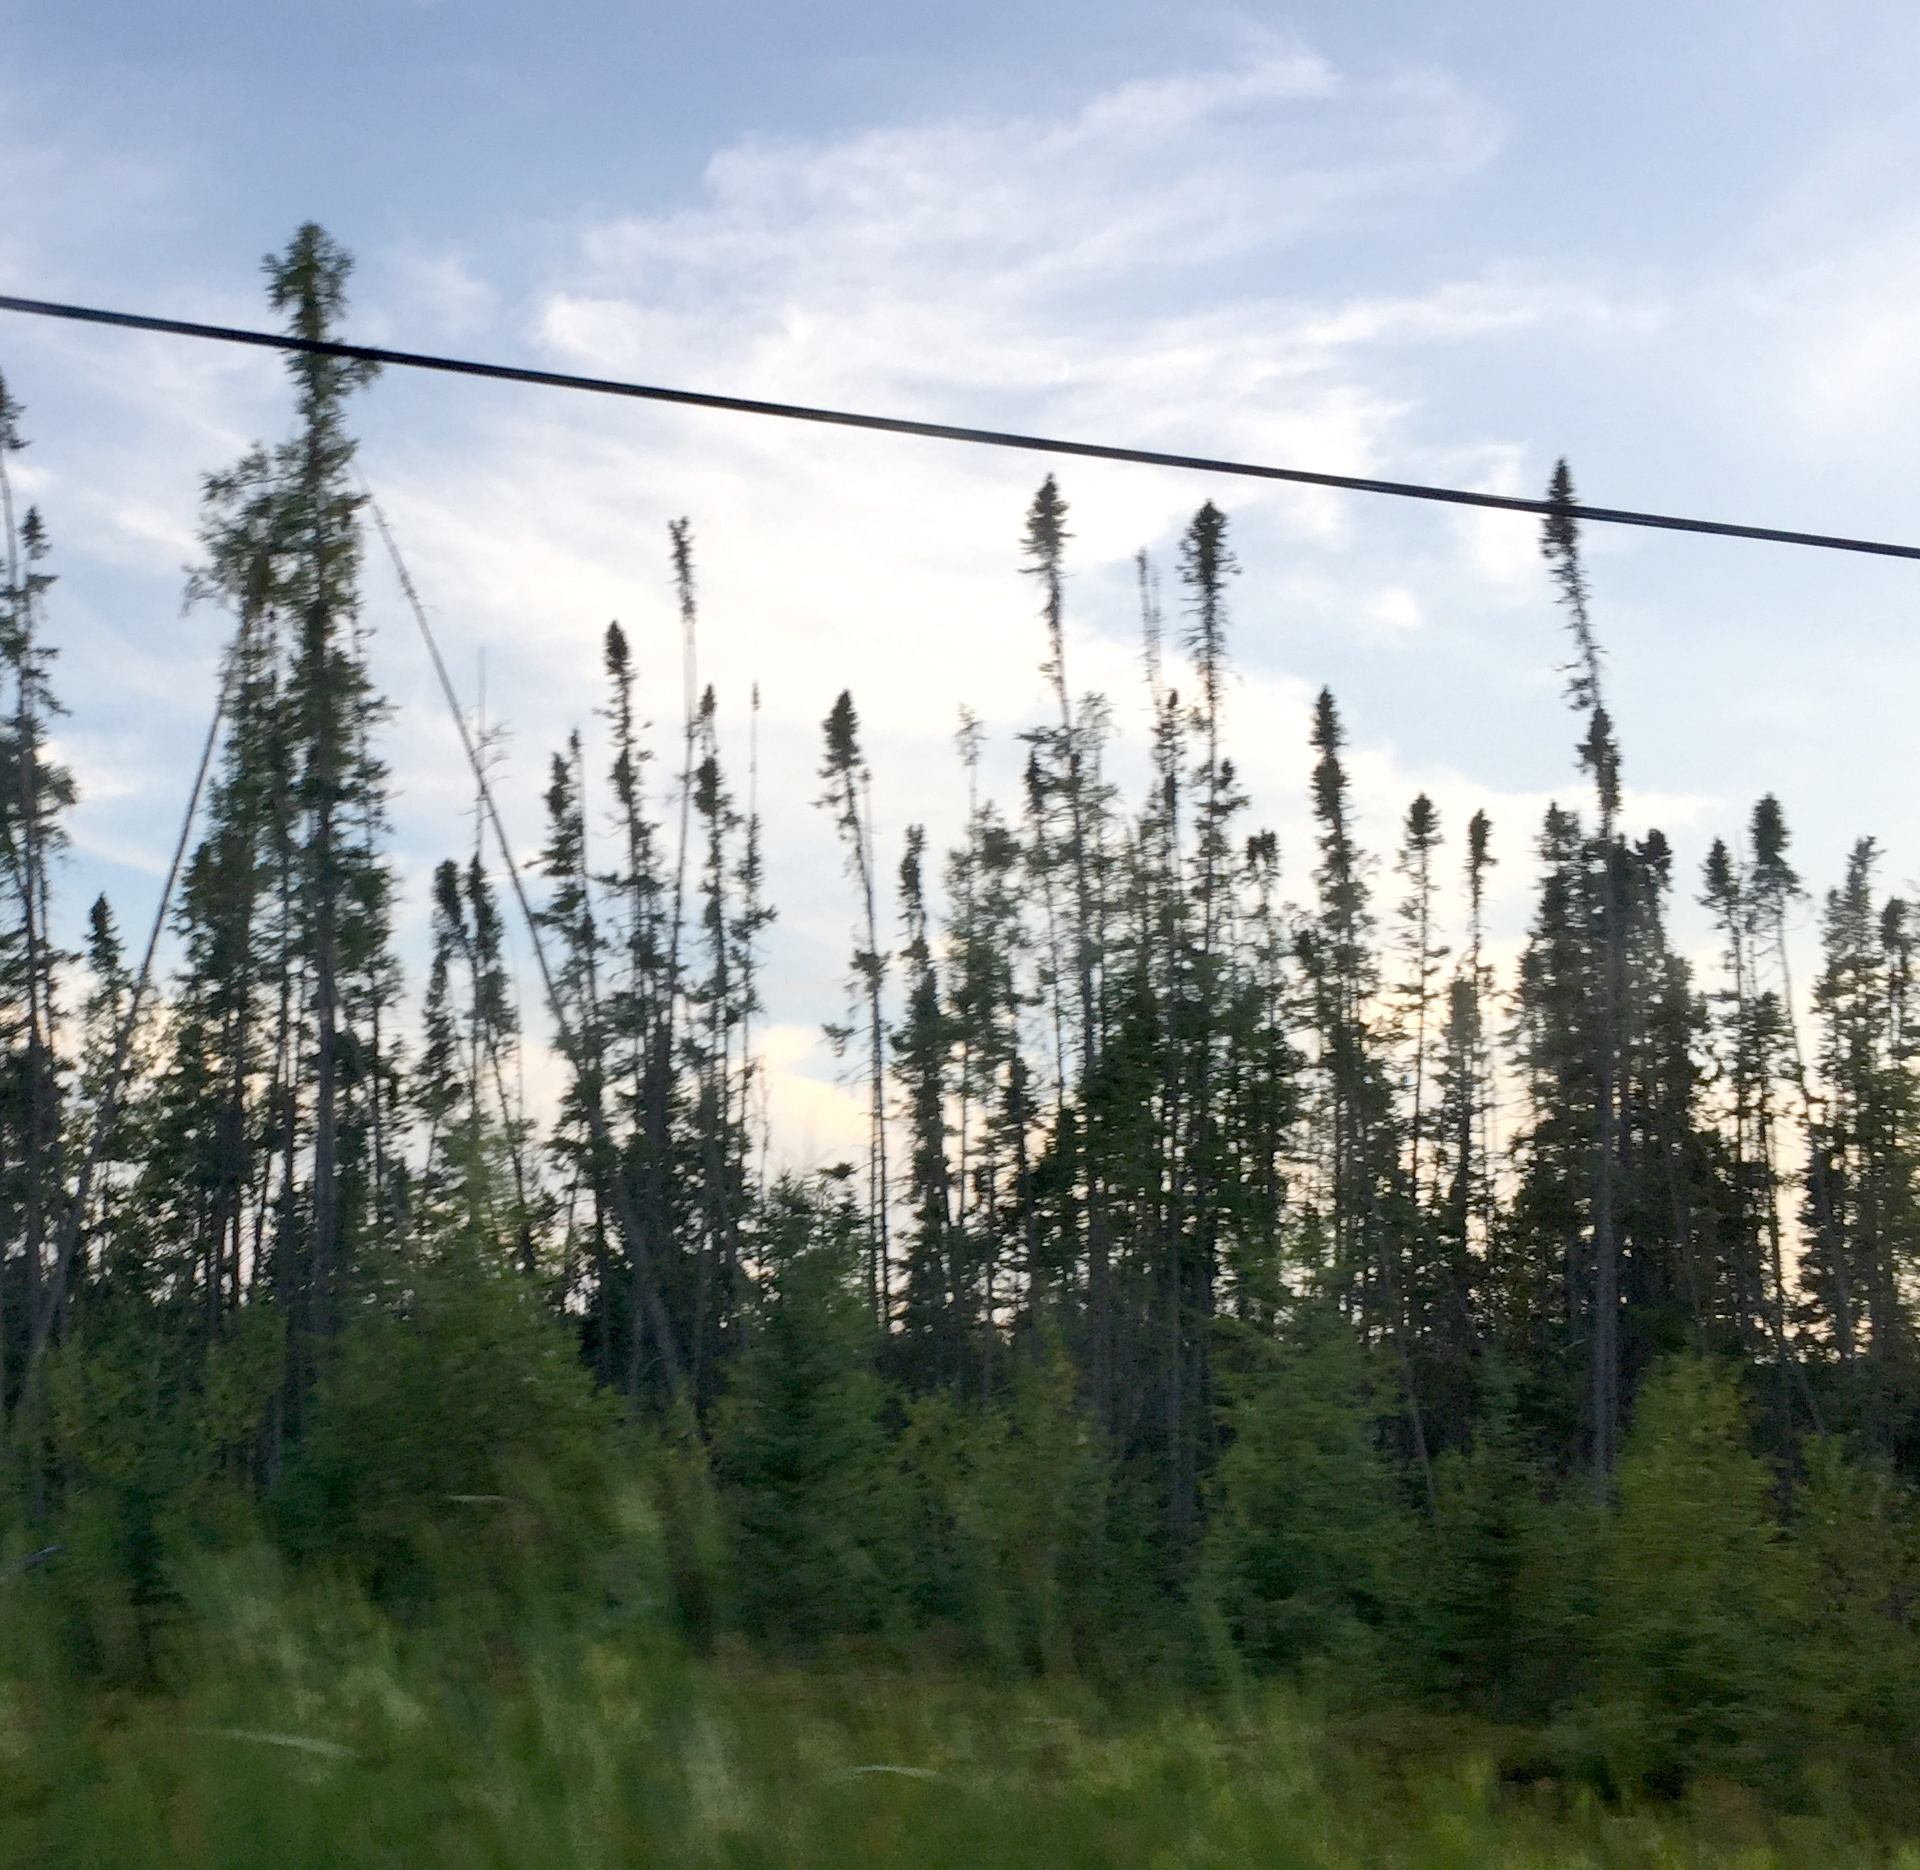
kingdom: Plantae
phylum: Tracheophyta
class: Pinopsida
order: Pinales
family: Pinaceae
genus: Picea
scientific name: Picea mariana
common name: Black spruce
